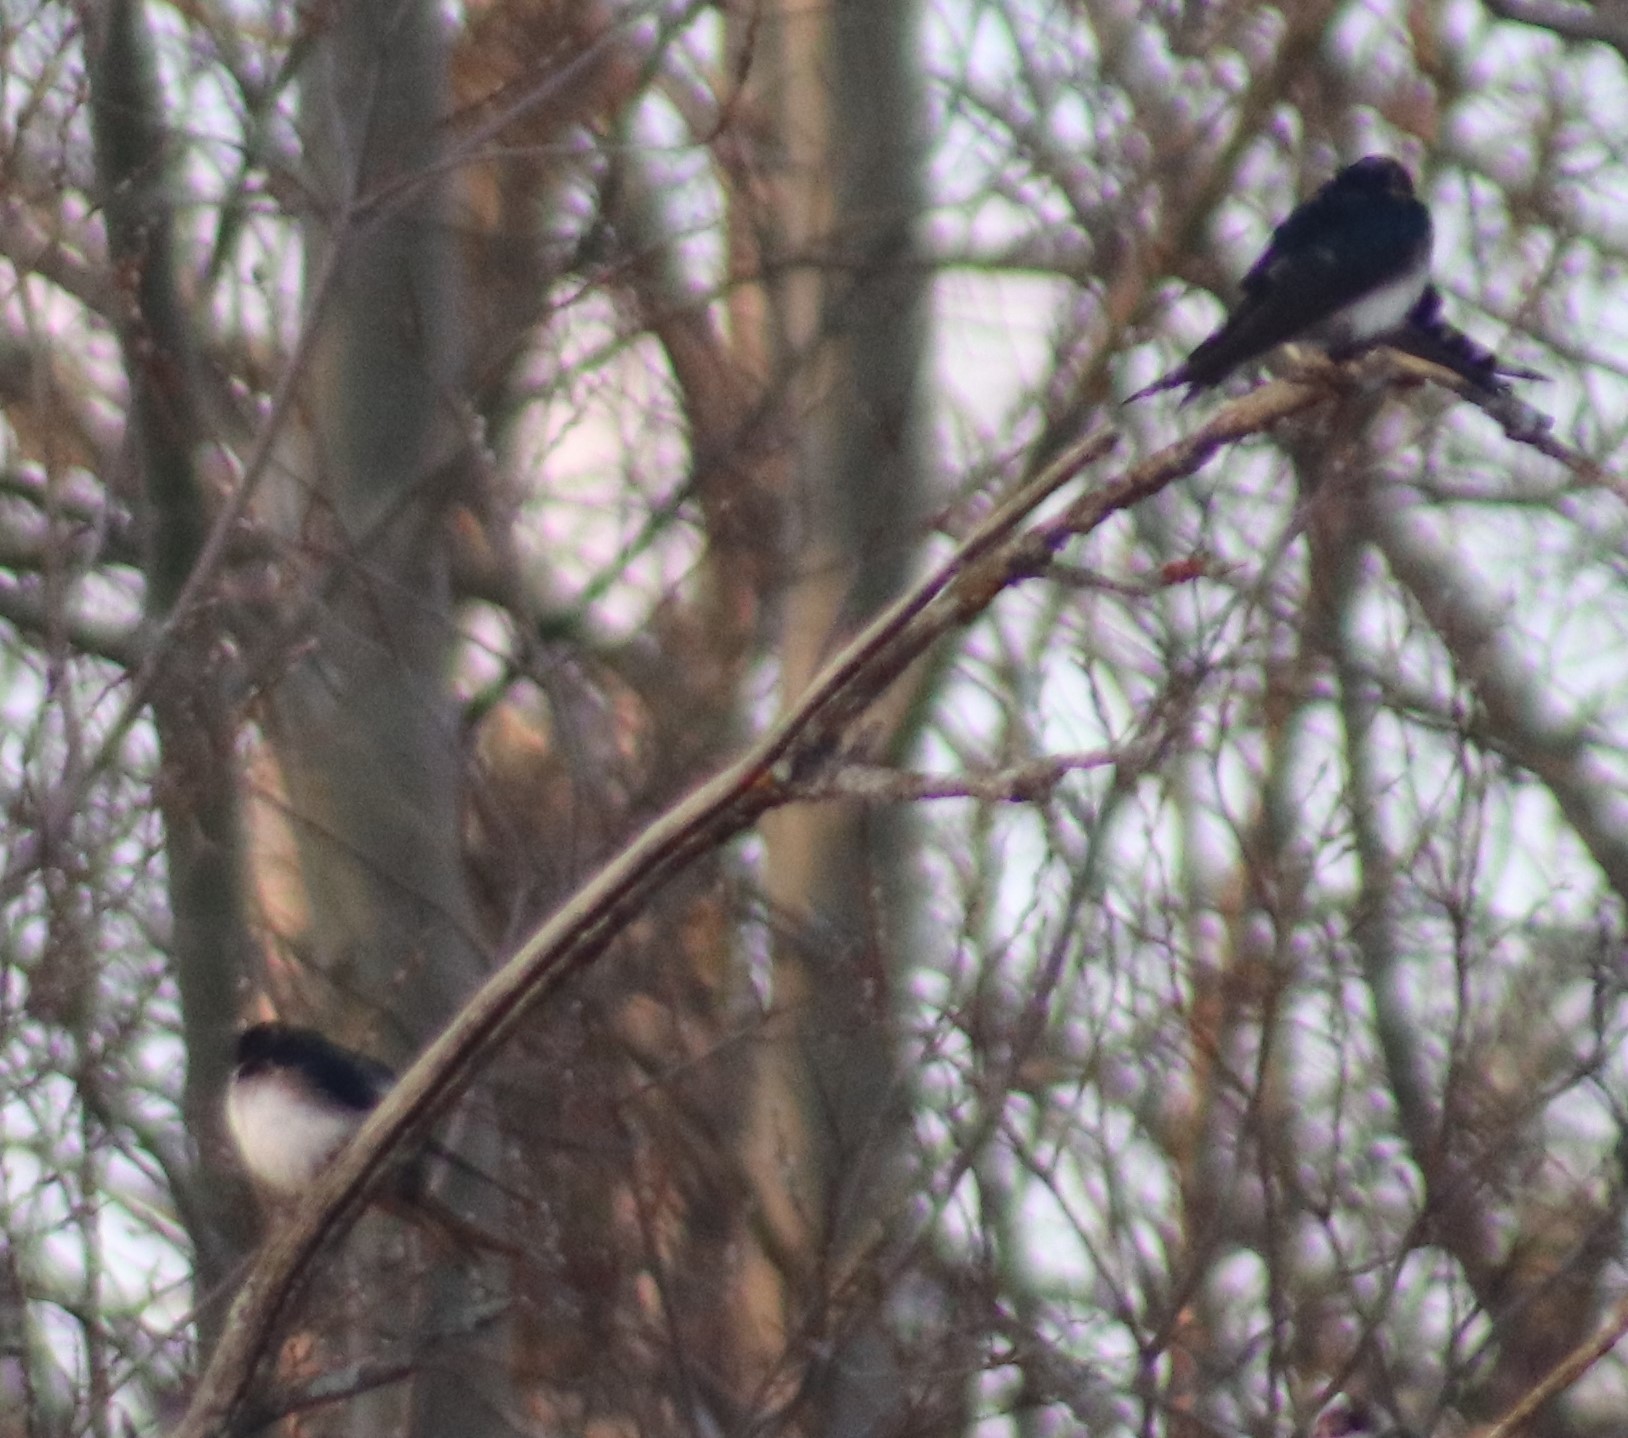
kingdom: Animalia
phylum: Chordata
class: Aves
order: Passeriformes
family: Hirundinidae
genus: Tachycineta
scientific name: Tachycineta bicolor
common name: Tree swallow
